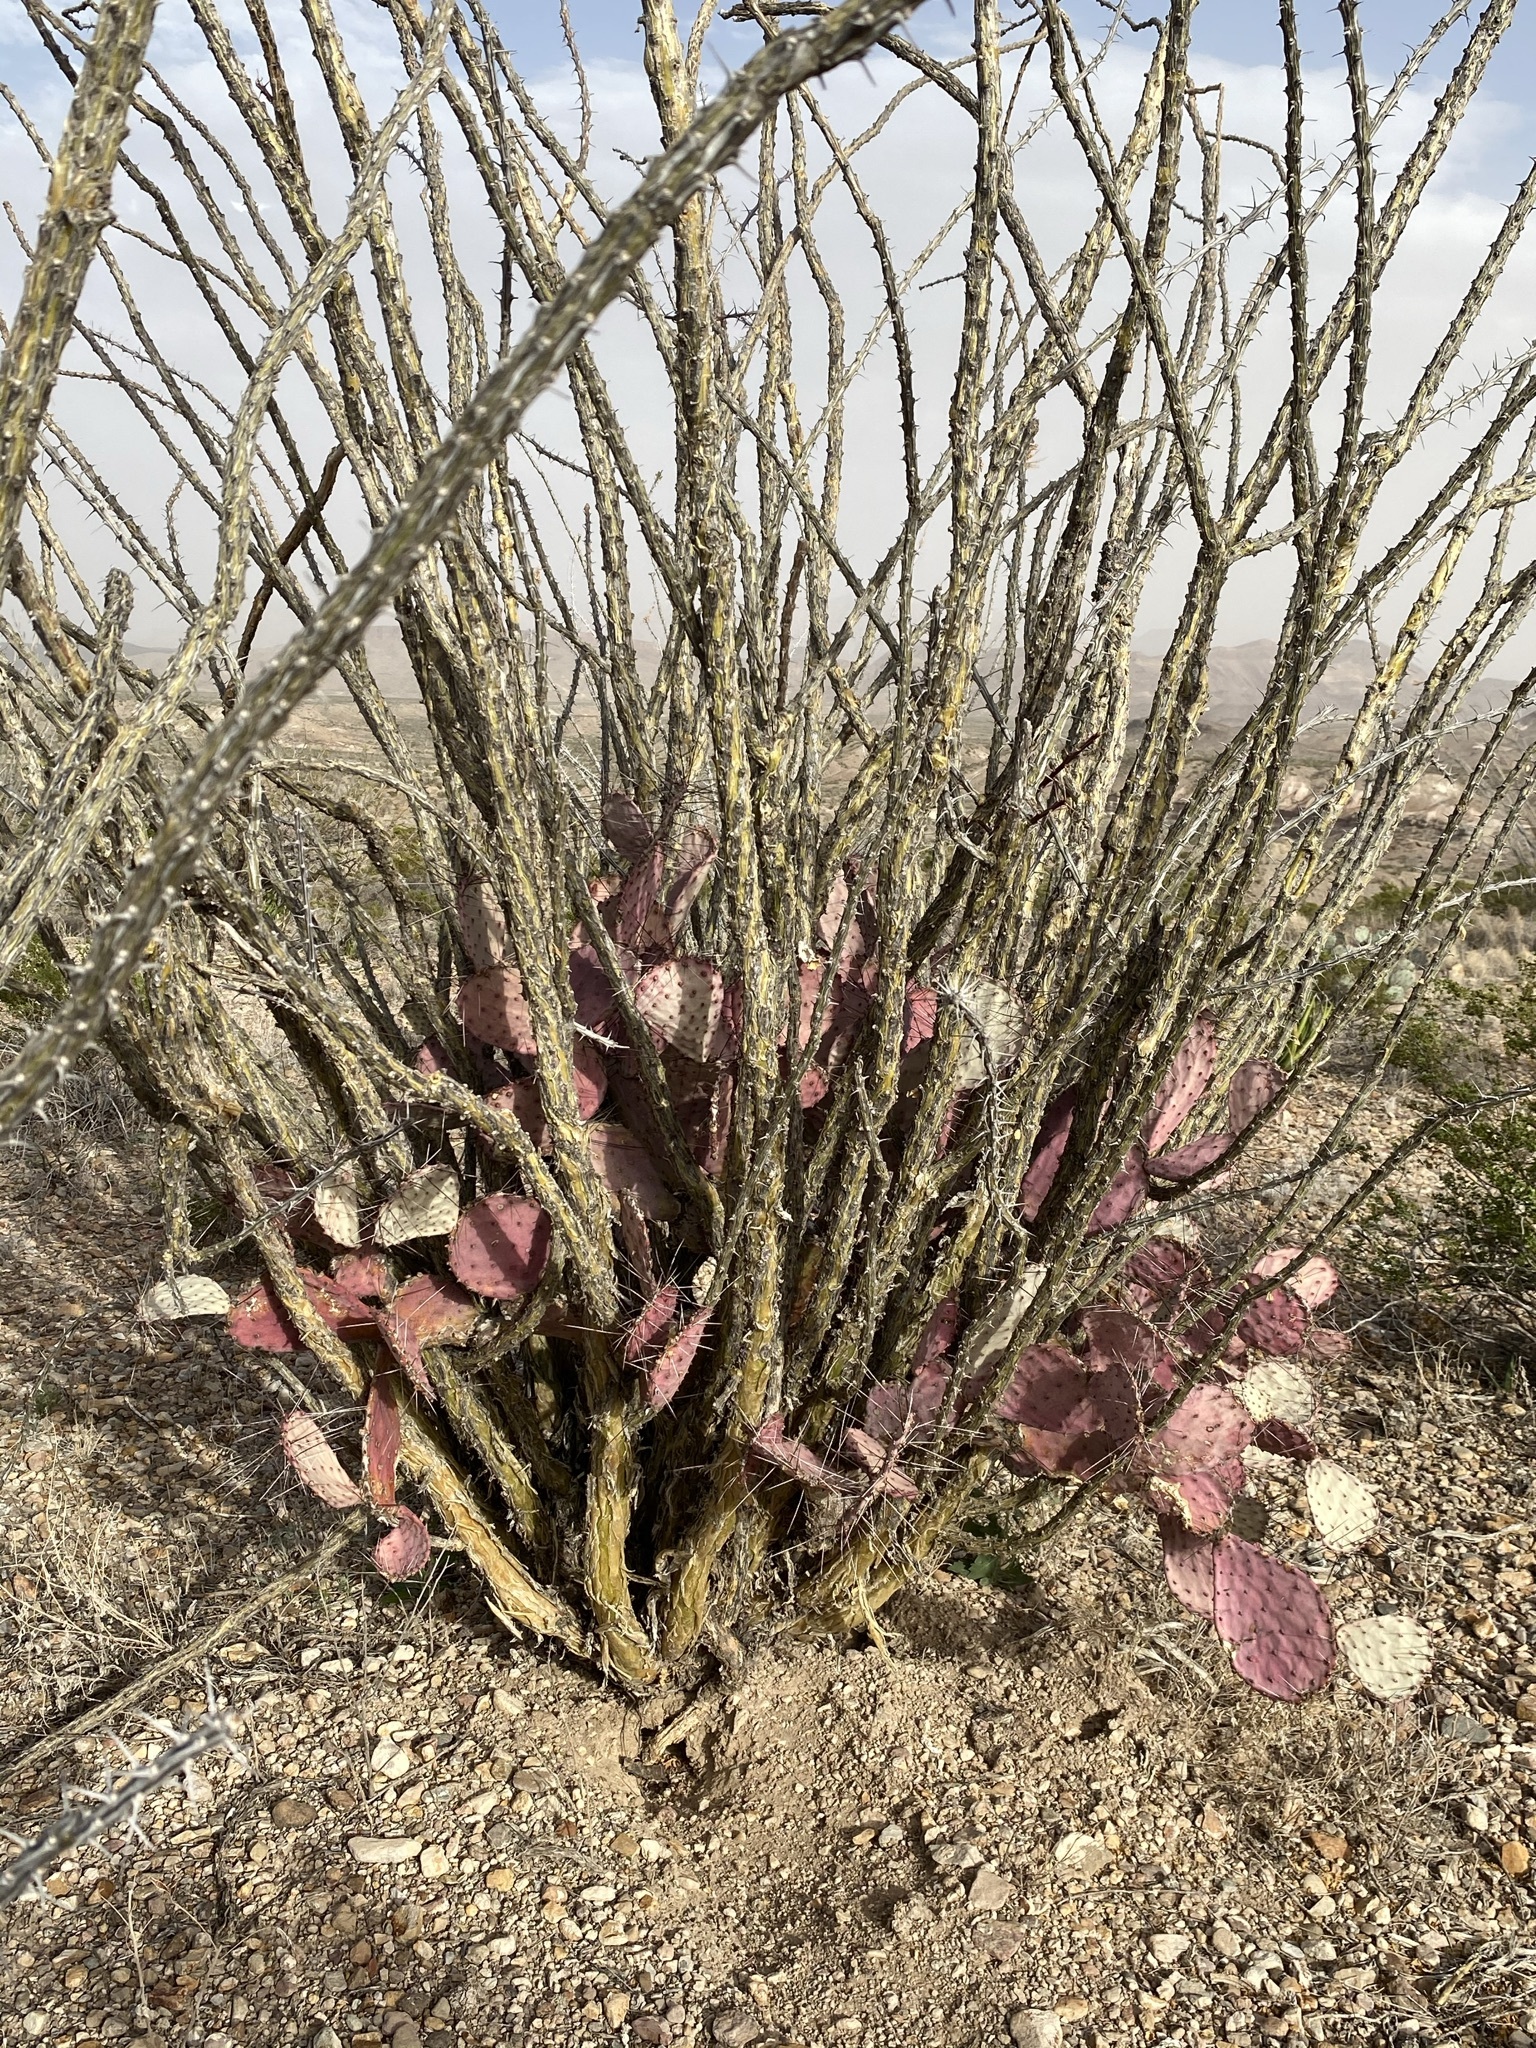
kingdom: Plantae
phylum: Tracheophyta
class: Magnoliopsida
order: Ericales
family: Fouquieriaceae
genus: Fouquieria
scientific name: Fouquieria splendens
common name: Vine-cactus
